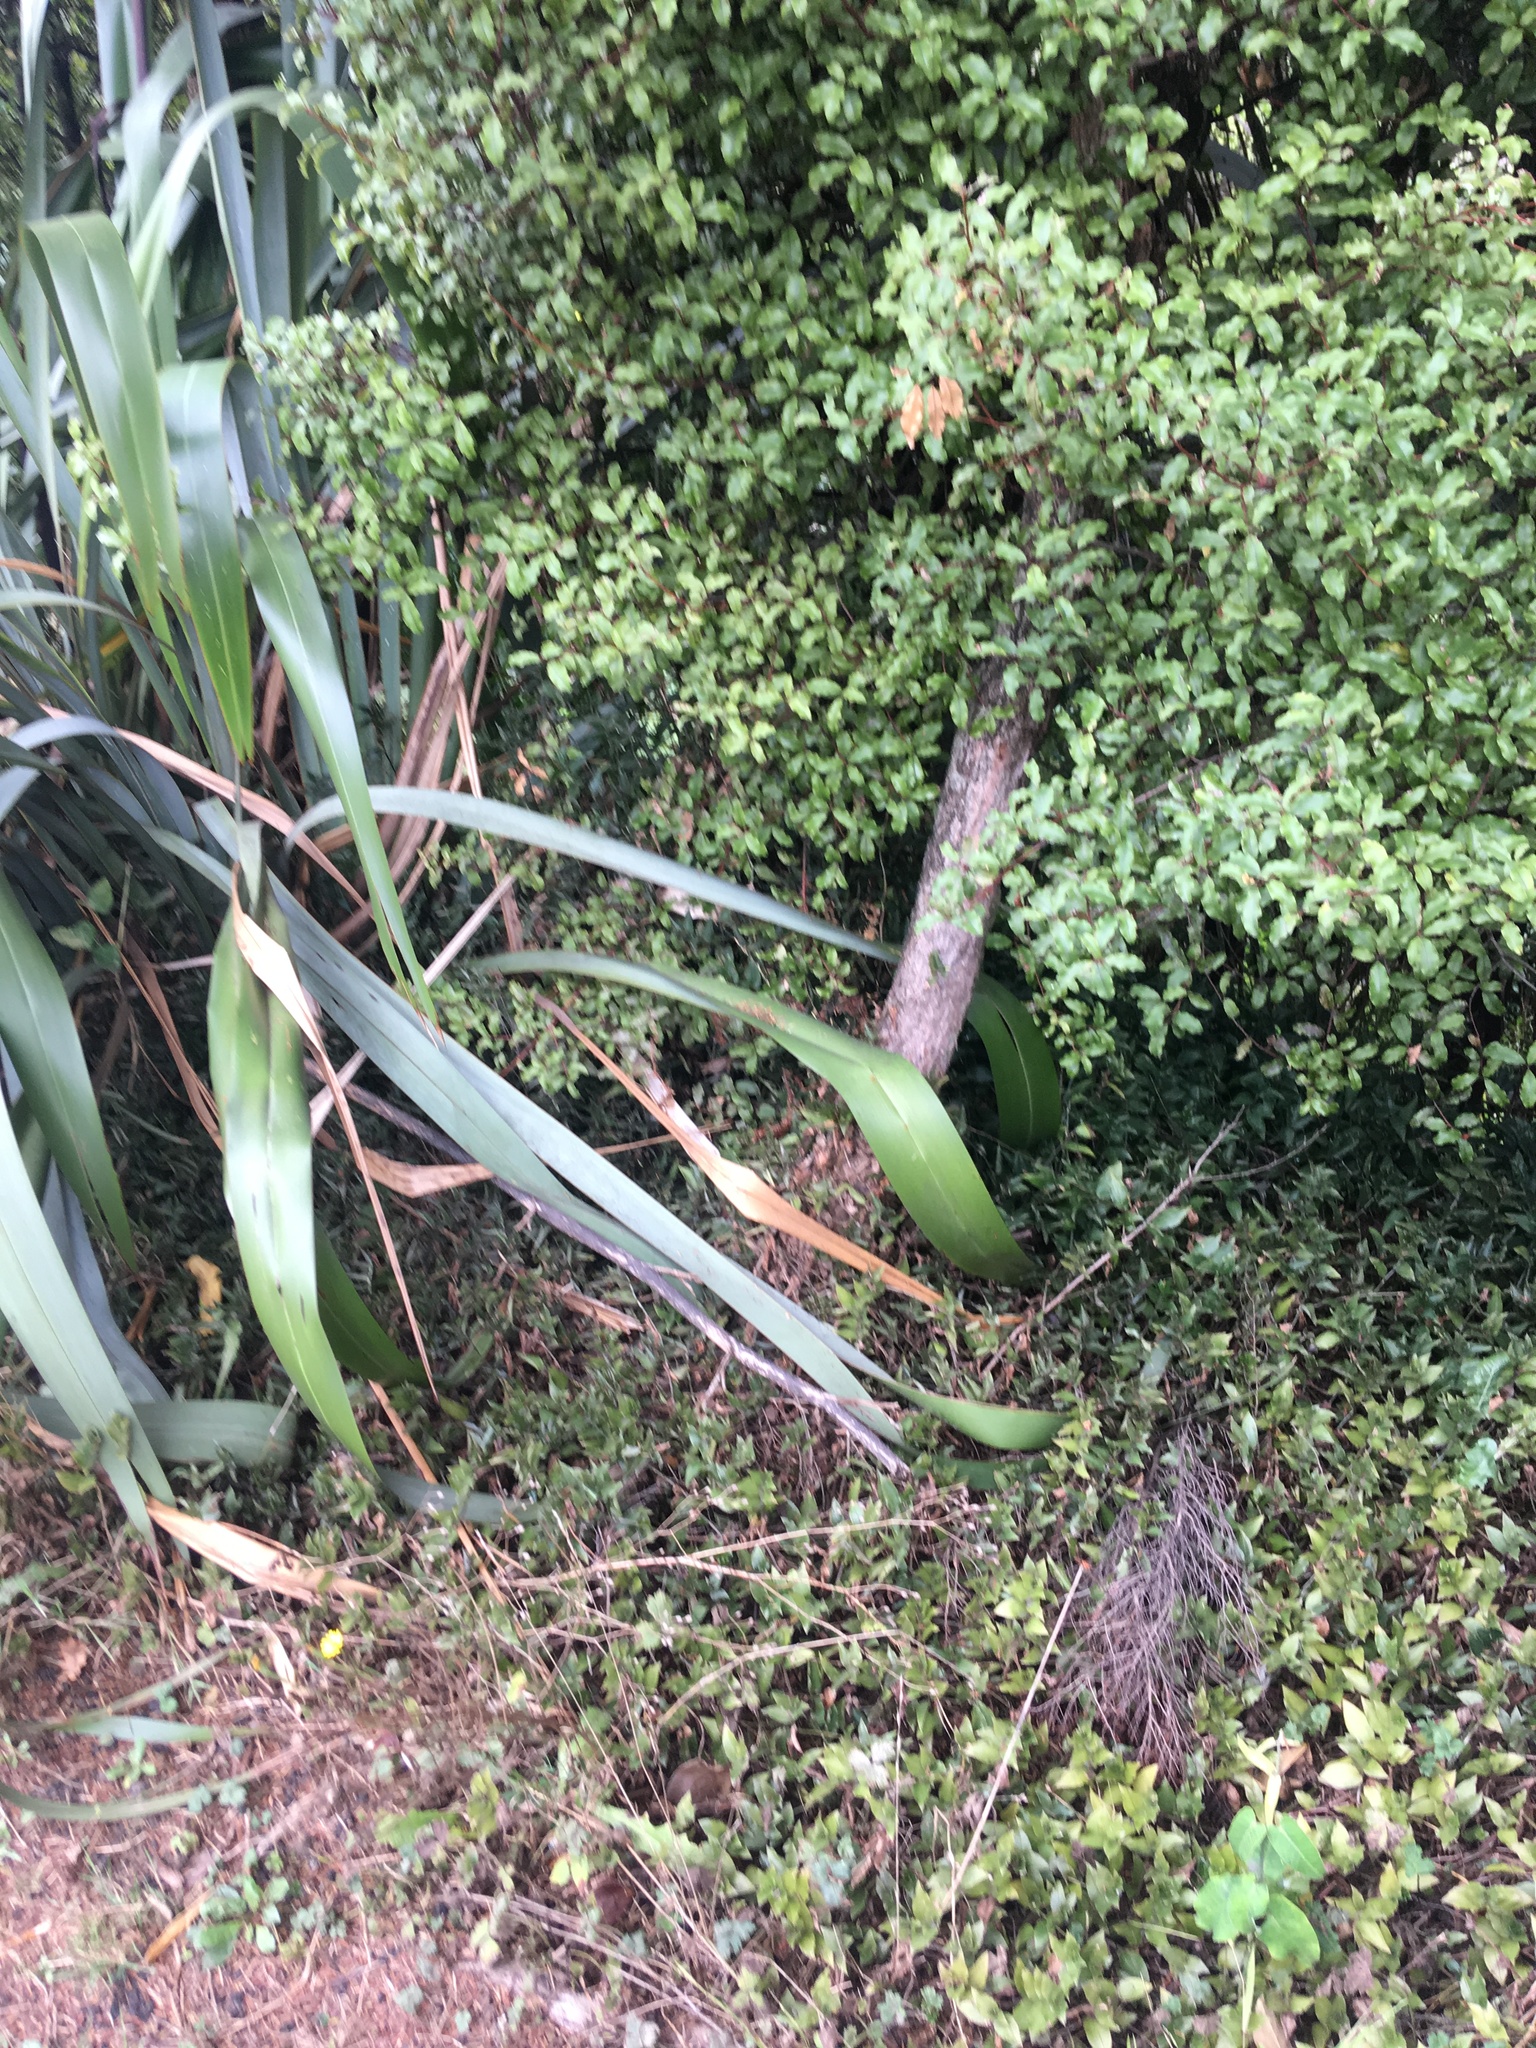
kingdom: Plantae
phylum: Tracheophyta
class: Magnoliopsida
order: Ericales
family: Primulaceae
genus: Myrsine
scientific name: Myrsine australis
